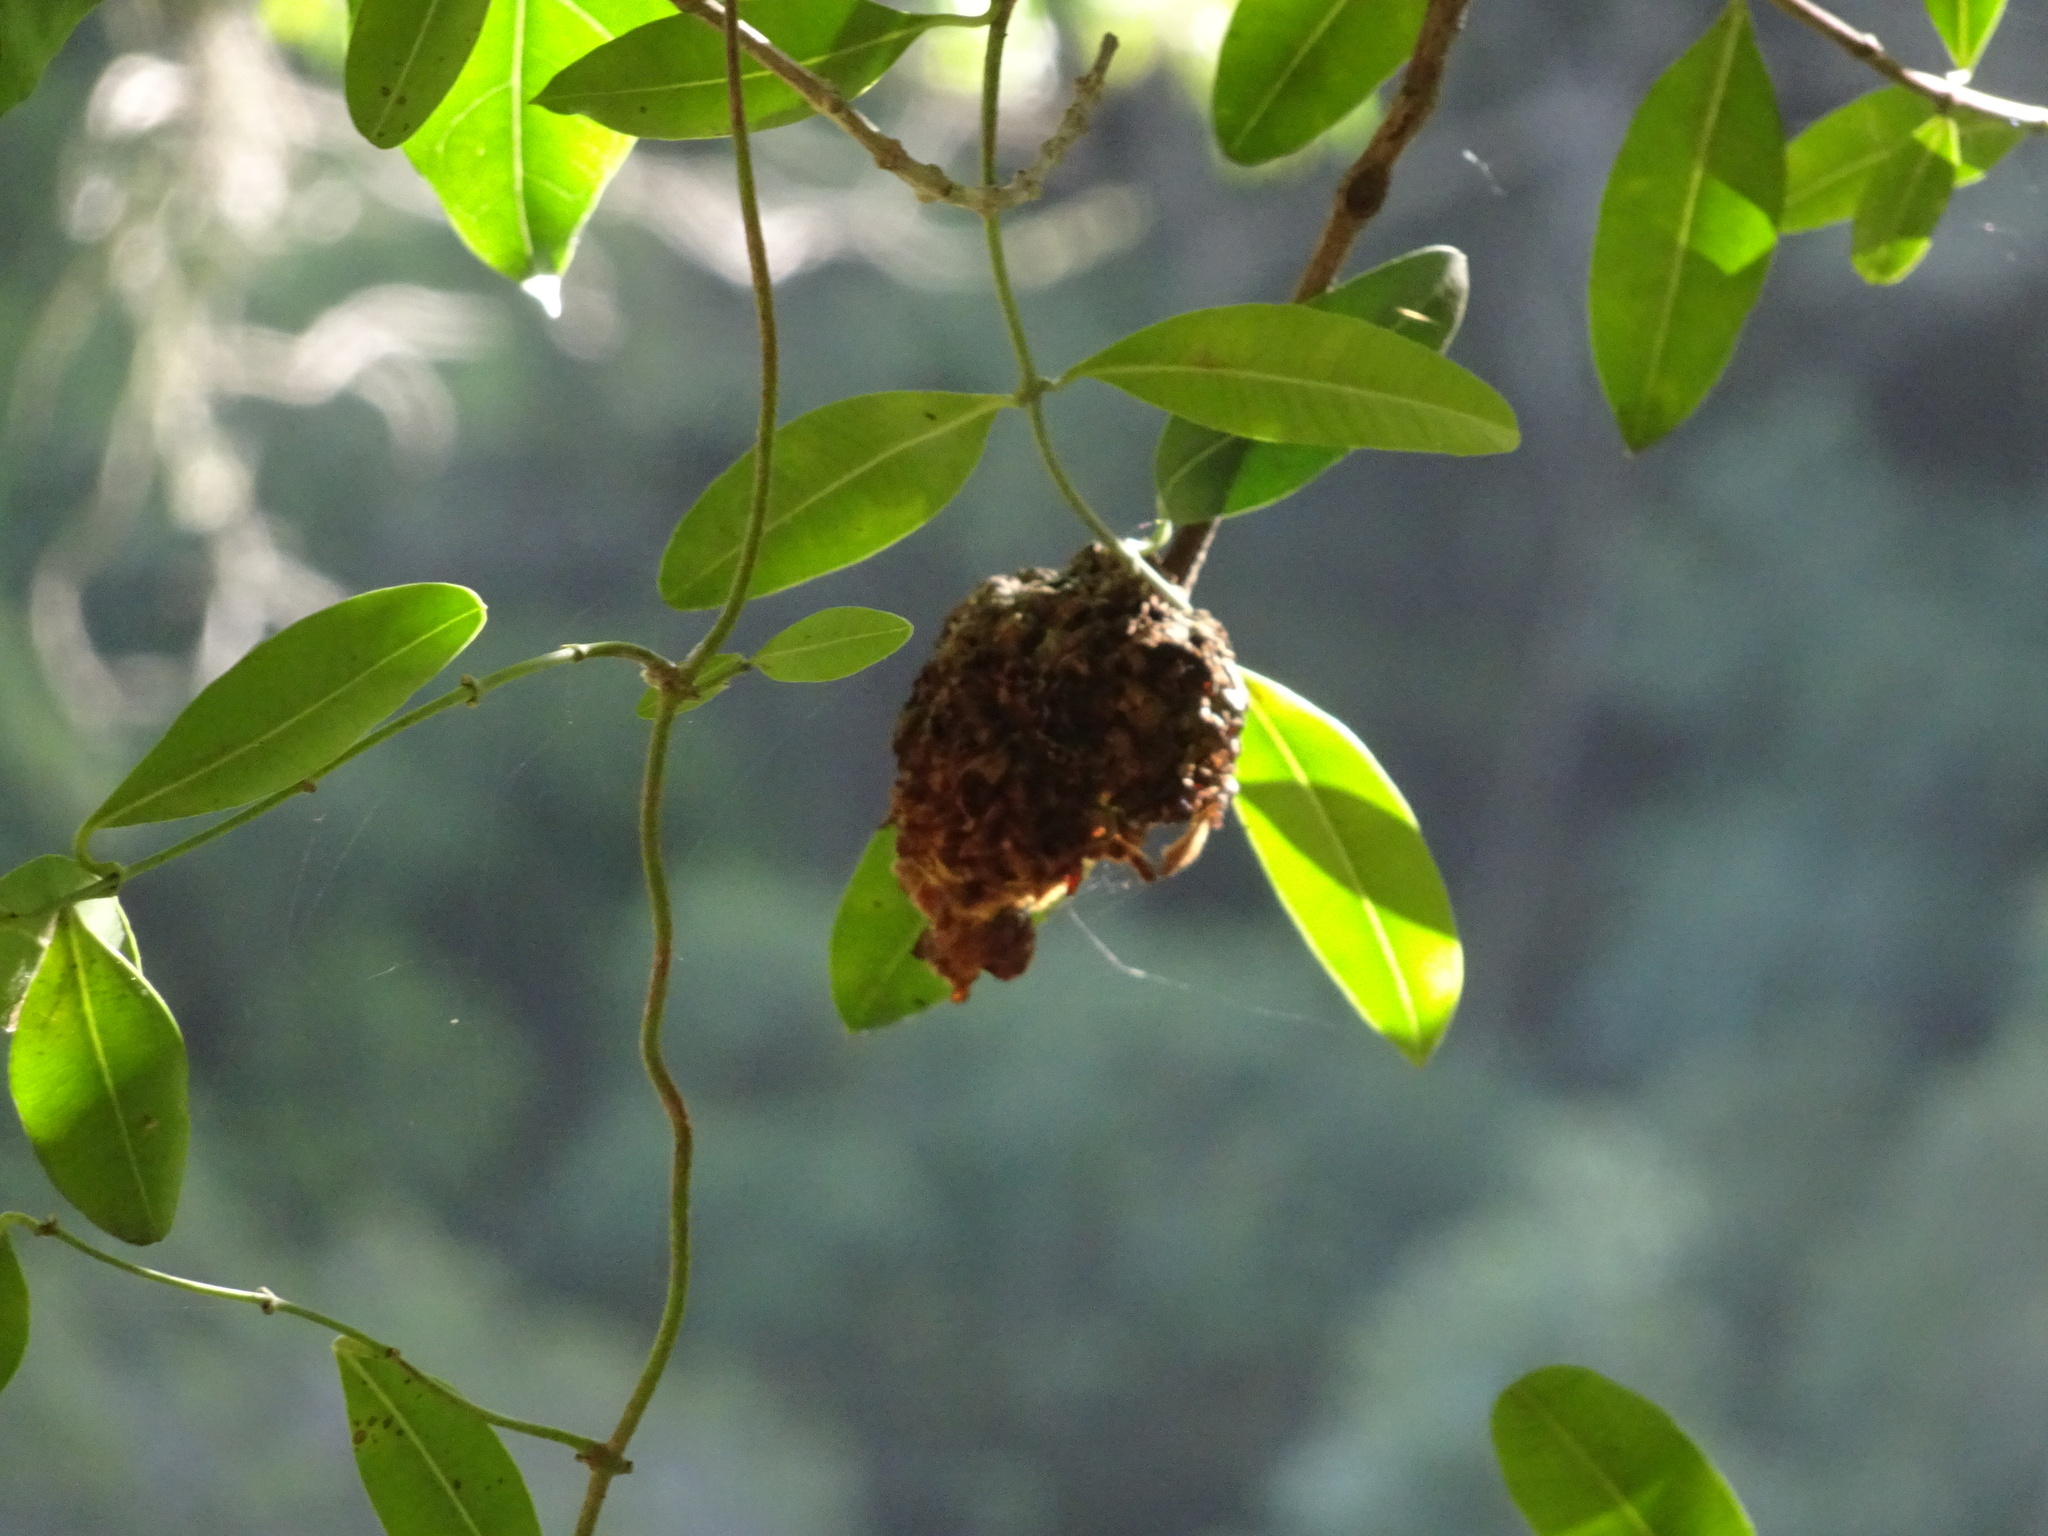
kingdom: Plantae
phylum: Tracheophyta
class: Magnoliopsida
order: Gentianales
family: Apocynaceae
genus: Secamone
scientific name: Secamone alpini
